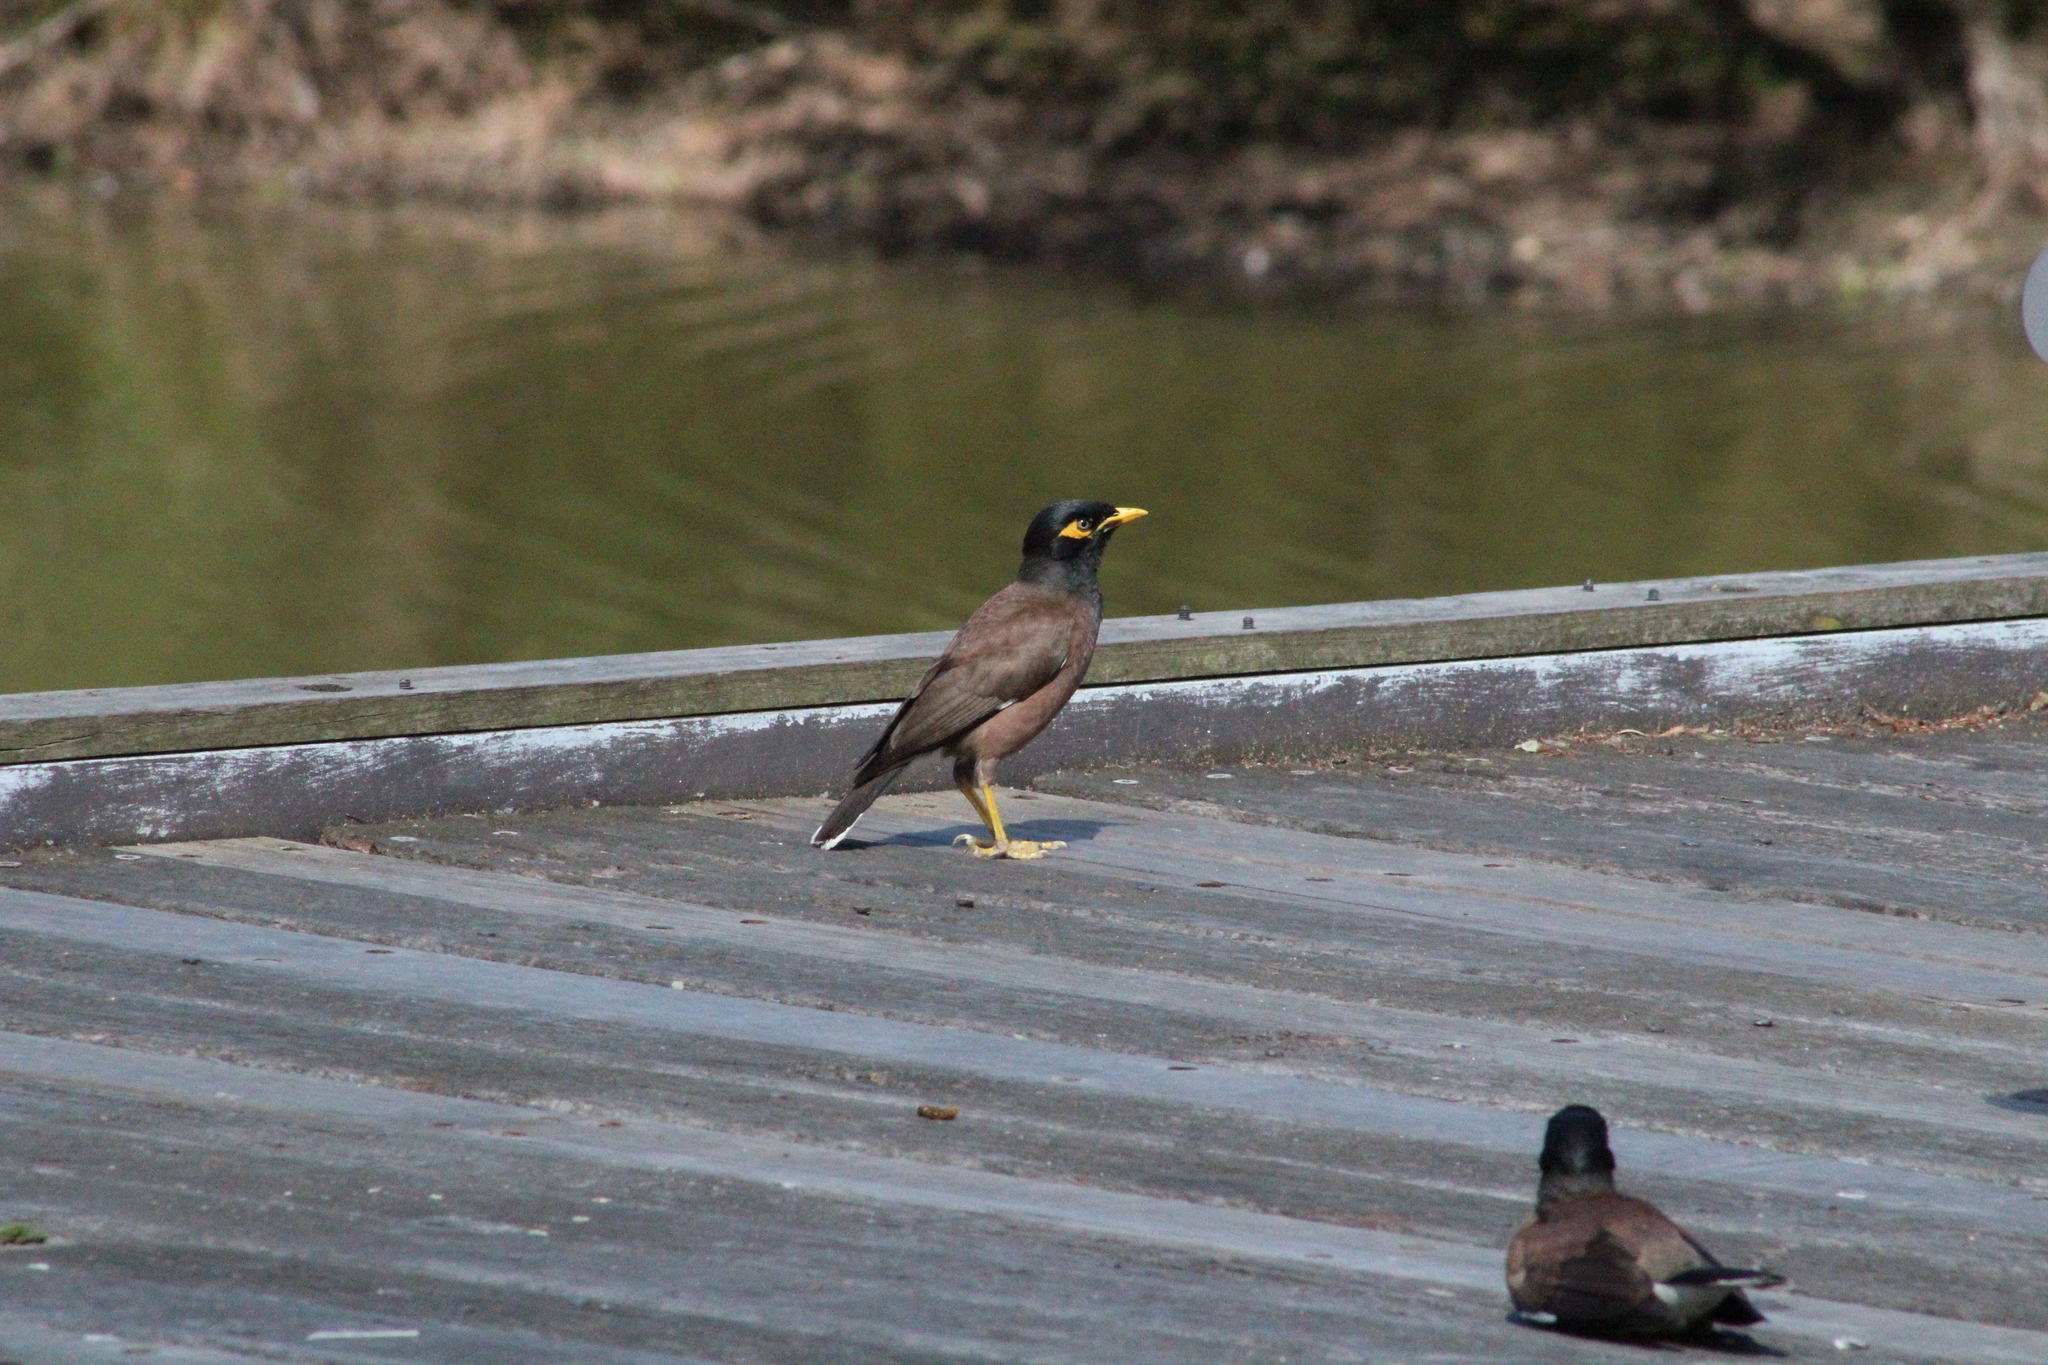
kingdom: Animalia
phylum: Chordata
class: Aves
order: Passeriformes
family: Sturnidae
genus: Acridotheres
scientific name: Acridotheres tristis
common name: Common myna
